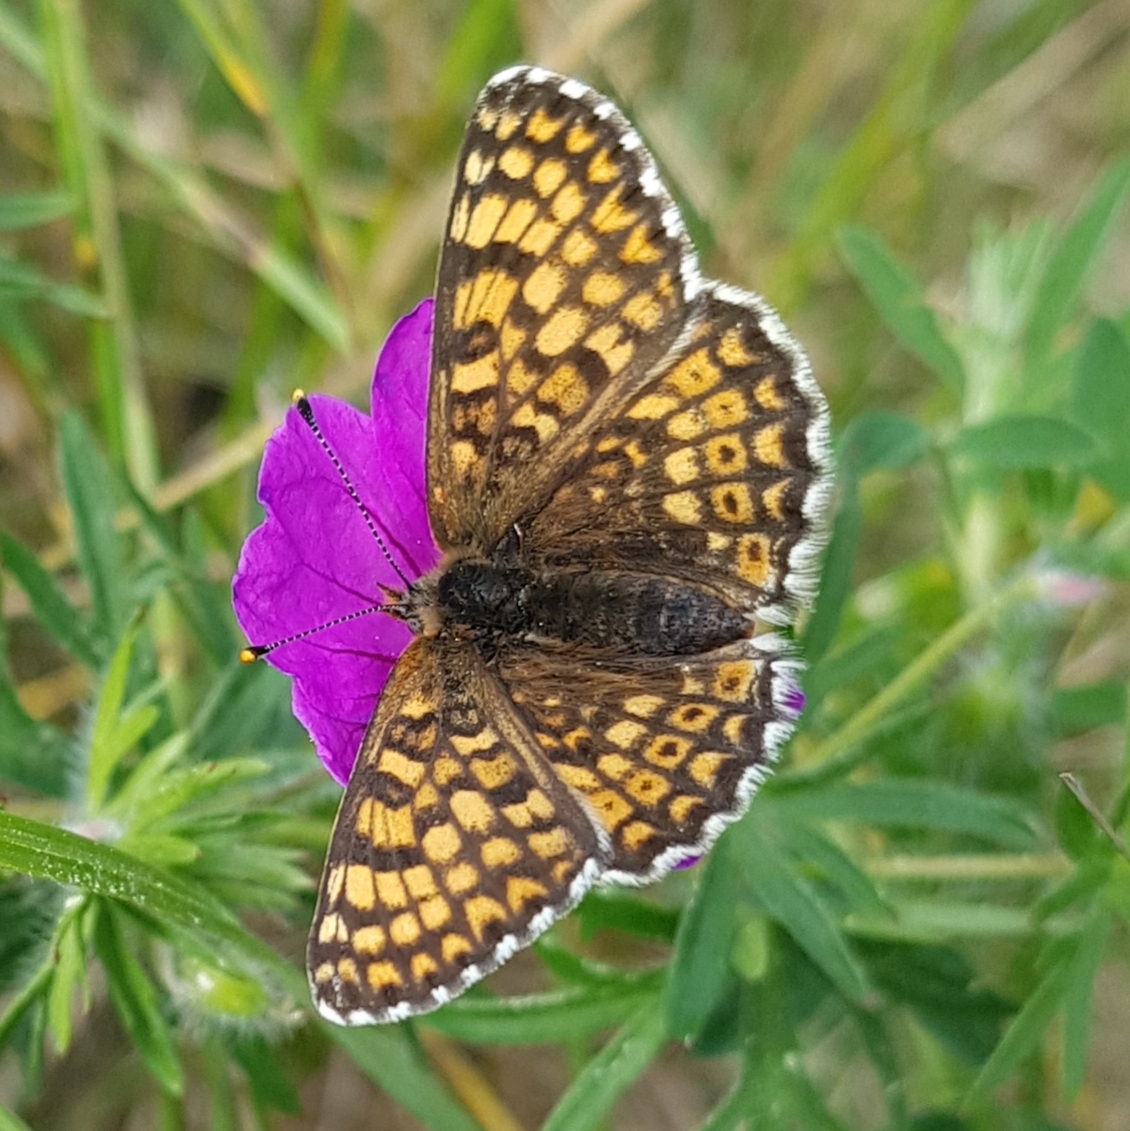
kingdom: Animalia
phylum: Arthropoda
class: Insecta
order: Lepidoptera
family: Nymphalidae
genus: Melitaea
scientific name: Melitaea cinxia
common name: Glanville fritillary
